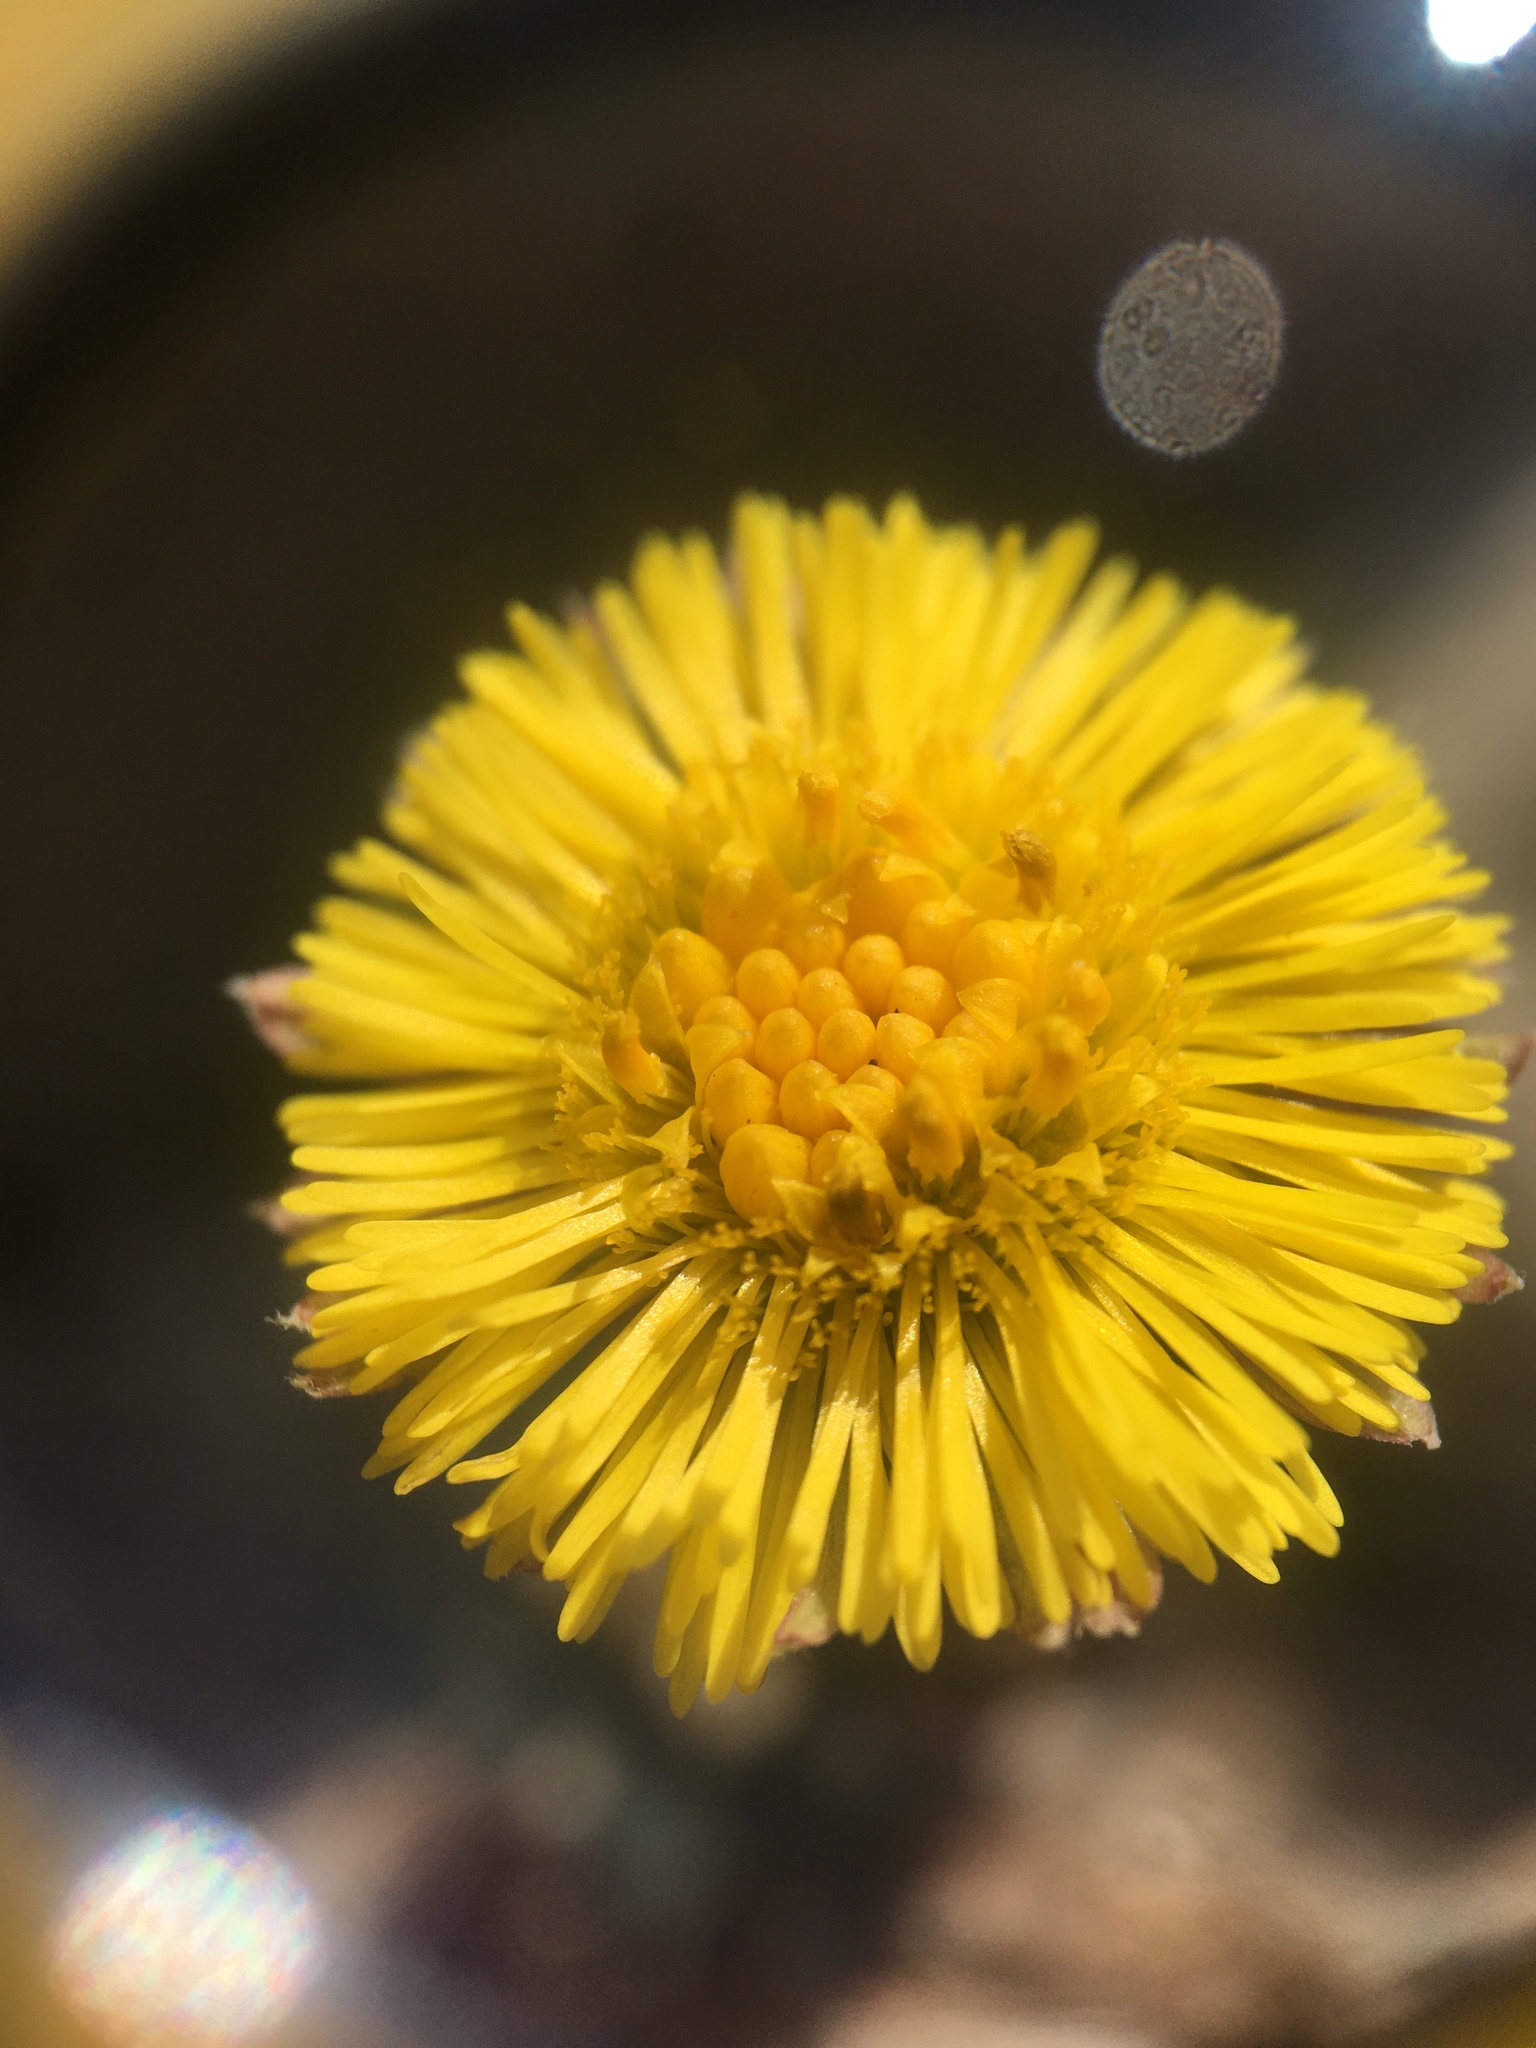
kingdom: Plantae
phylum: Tracheophyta
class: Magnoliopsida
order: Asterales
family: Asteraceae
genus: Tussilago
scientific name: Tussilago farfara
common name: Coltsfoot
